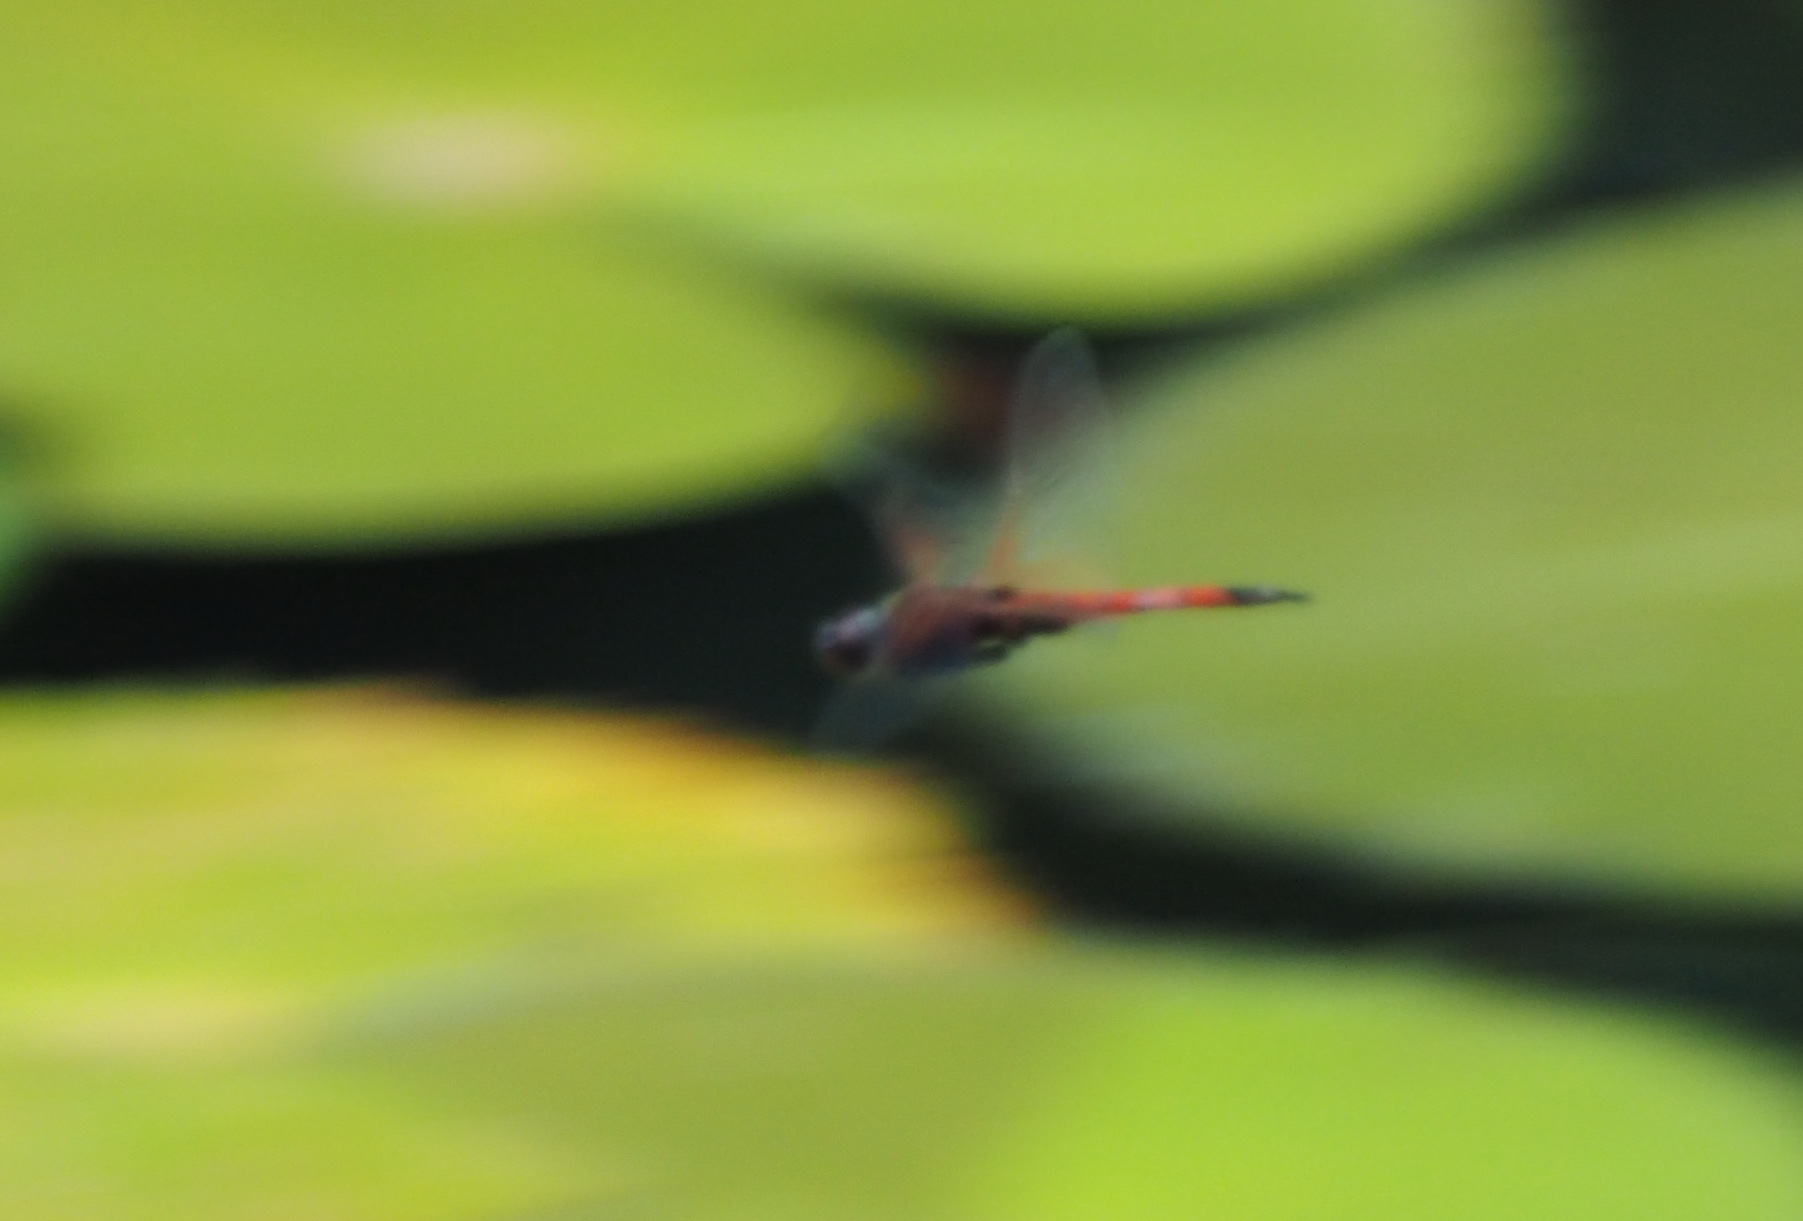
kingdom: Animalia
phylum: Arthropoda
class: Insecta
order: Odonata
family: Libellulidae
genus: Tramea
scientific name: Tramea transmarina
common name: Red glider dragonfly
